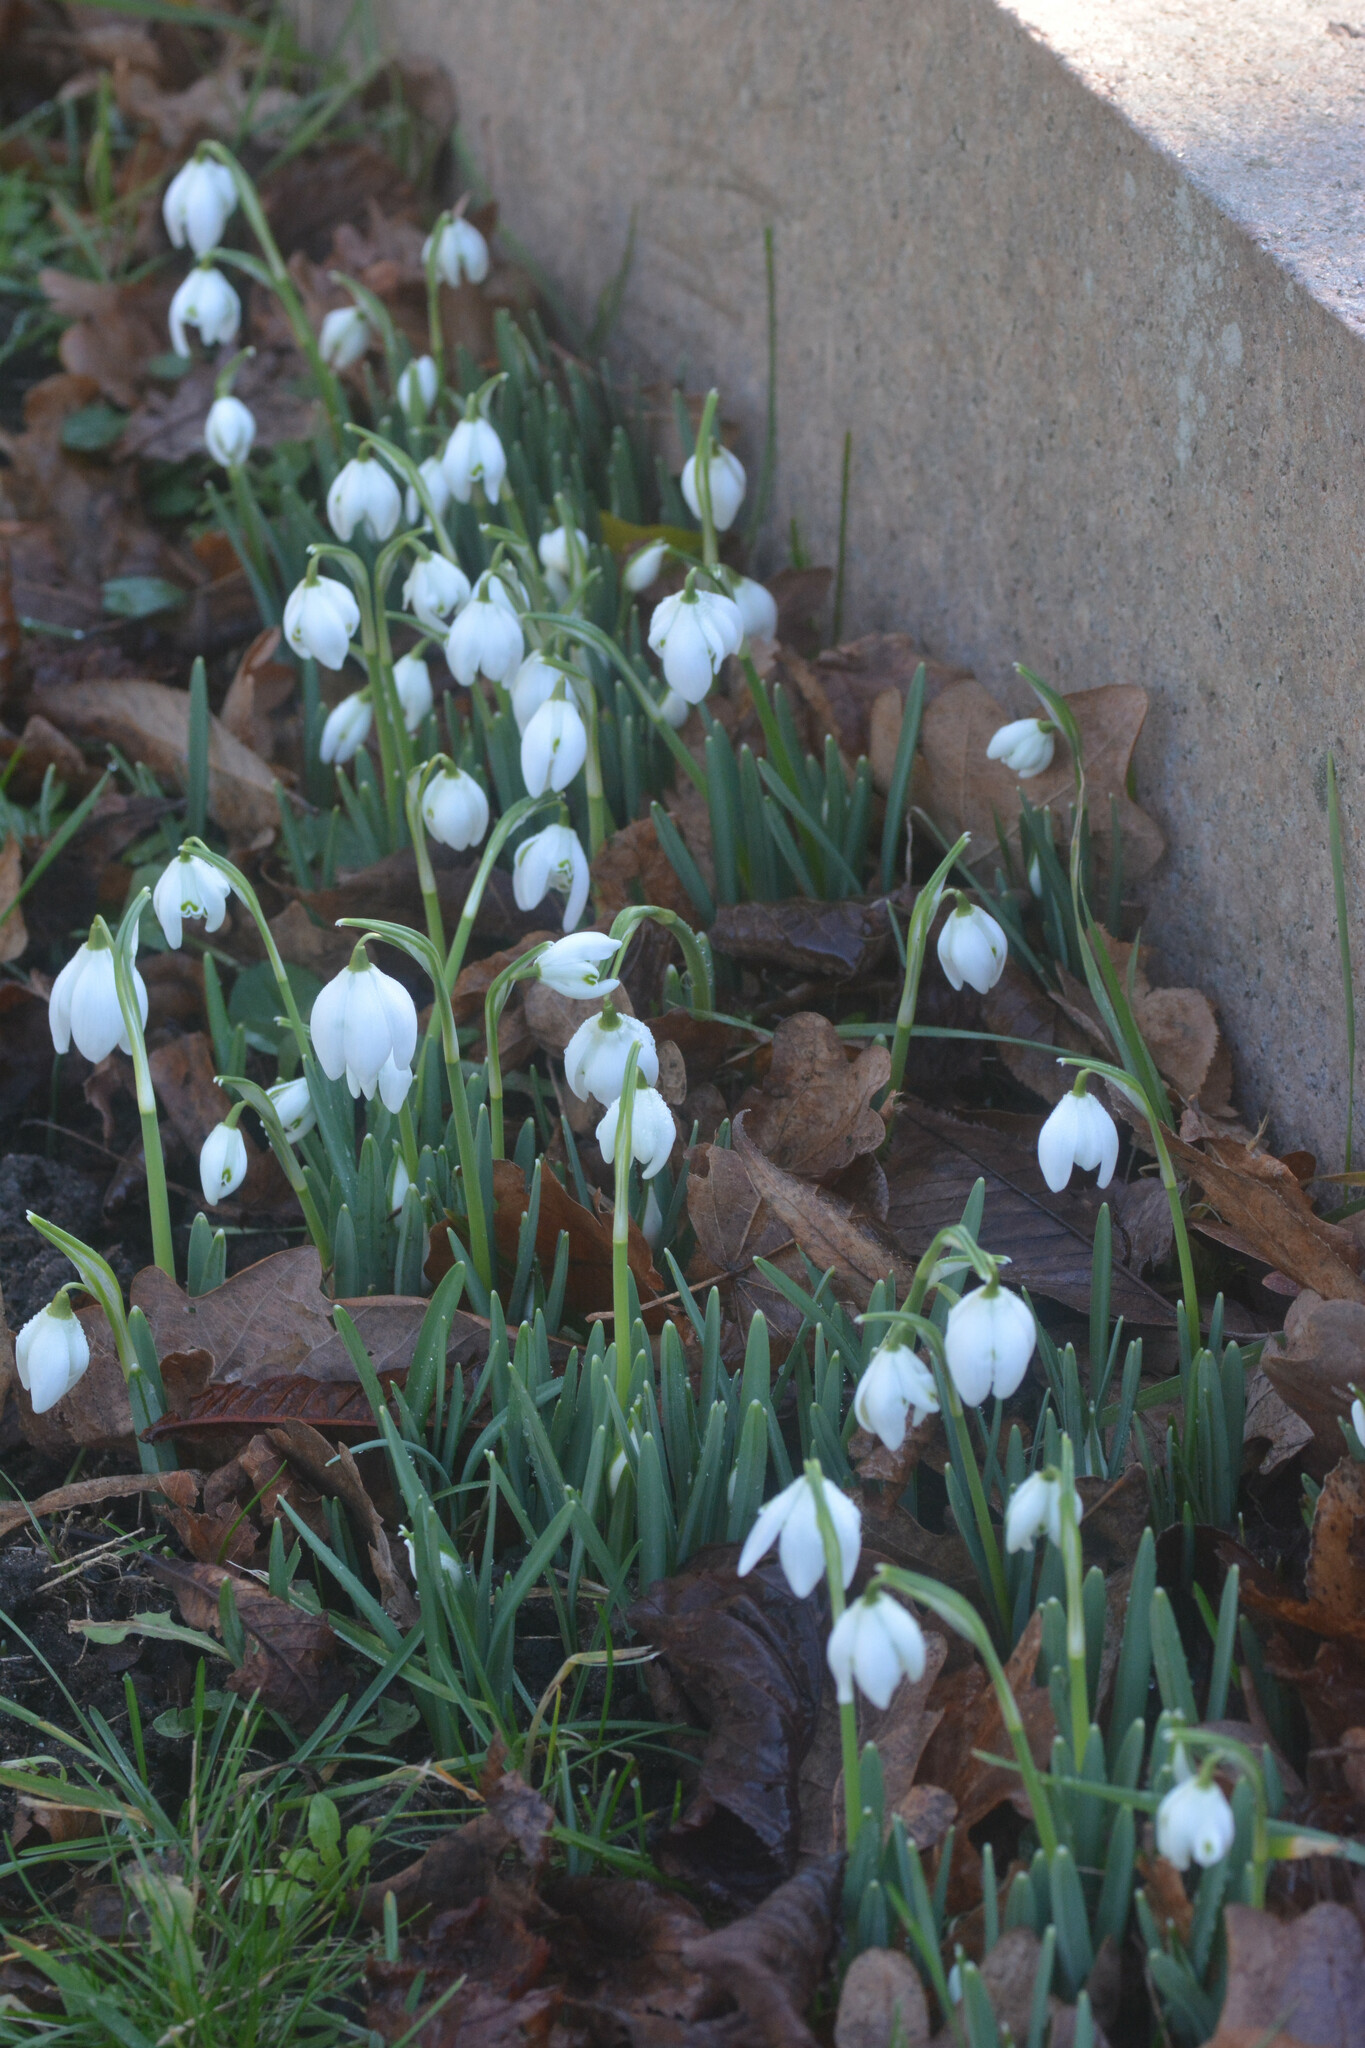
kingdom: Plantae
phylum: Tracheophyta
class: Liliopsida
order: Asparagales
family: Amaryllidaceae
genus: Galanthus
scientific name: Galanthus nivalis
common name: Snowdrop
